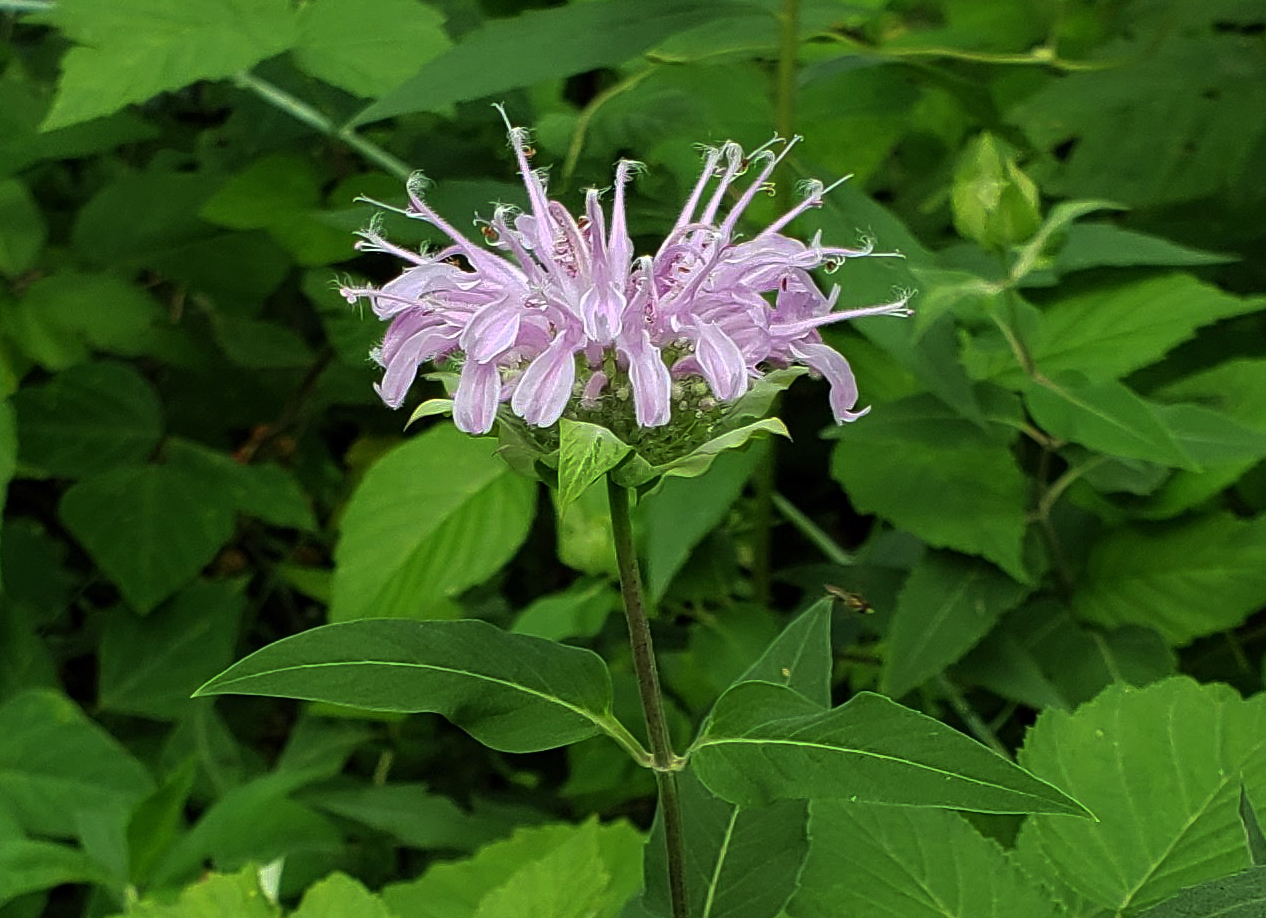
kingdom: Plantae
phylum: Tracheophyta
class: Magnoliopsida
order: Lamiales
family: Lamiaceae
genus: Monarda
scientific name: Monarda fistulosa
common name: Purple beebalm
